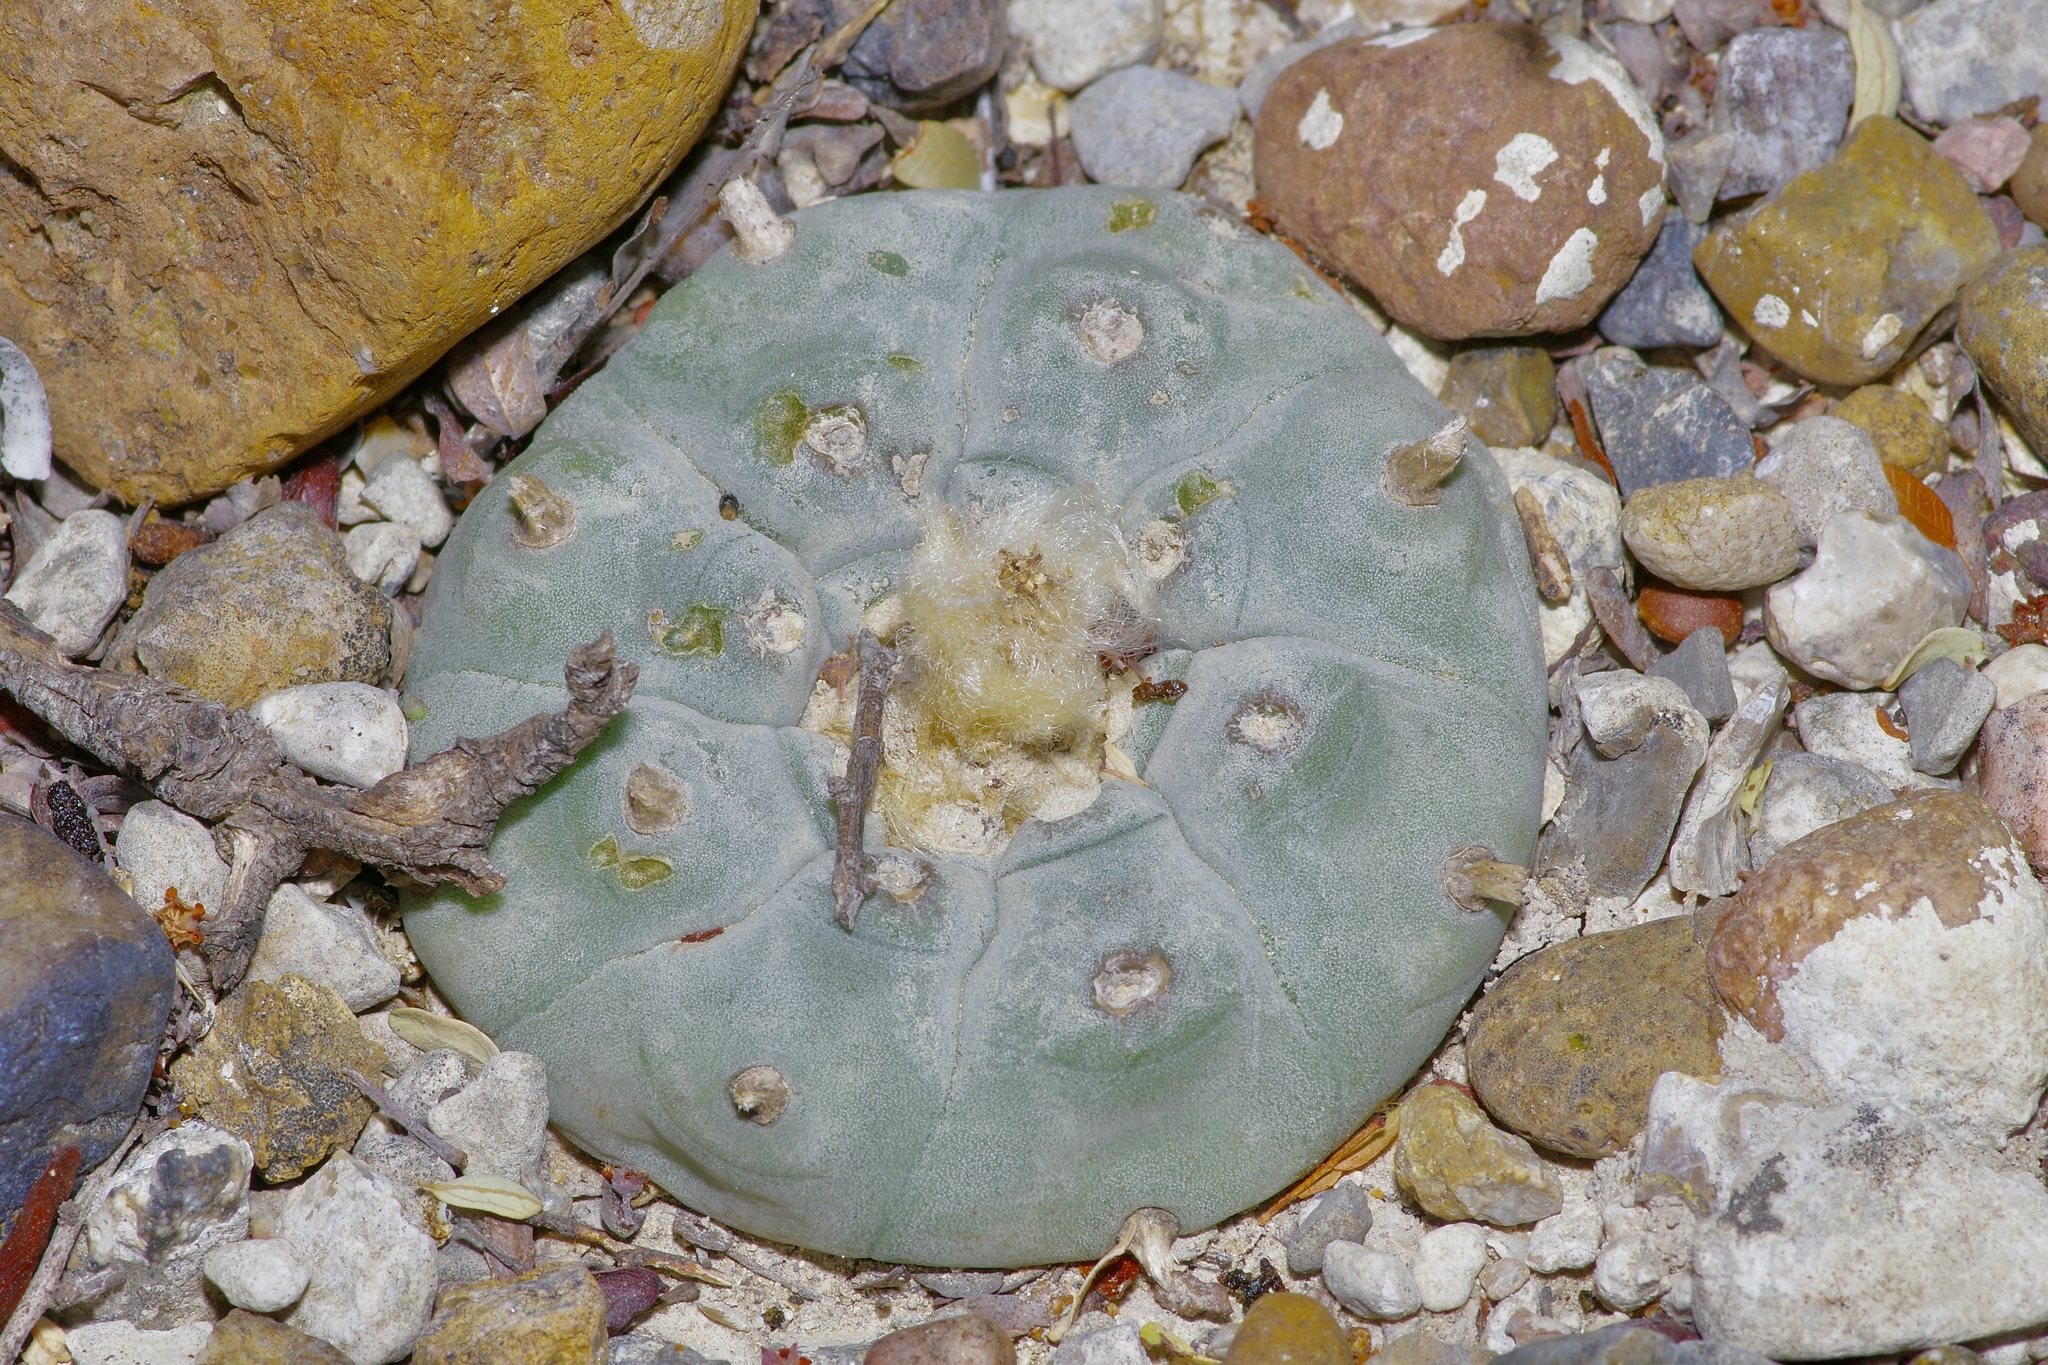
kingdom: Plantae
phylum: Tracheophyta
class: Magnoliopsida
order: Caryophyllales
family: Cactaceae
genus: Lophophora
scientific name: Lophophora williamsii
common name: Indian-dope
